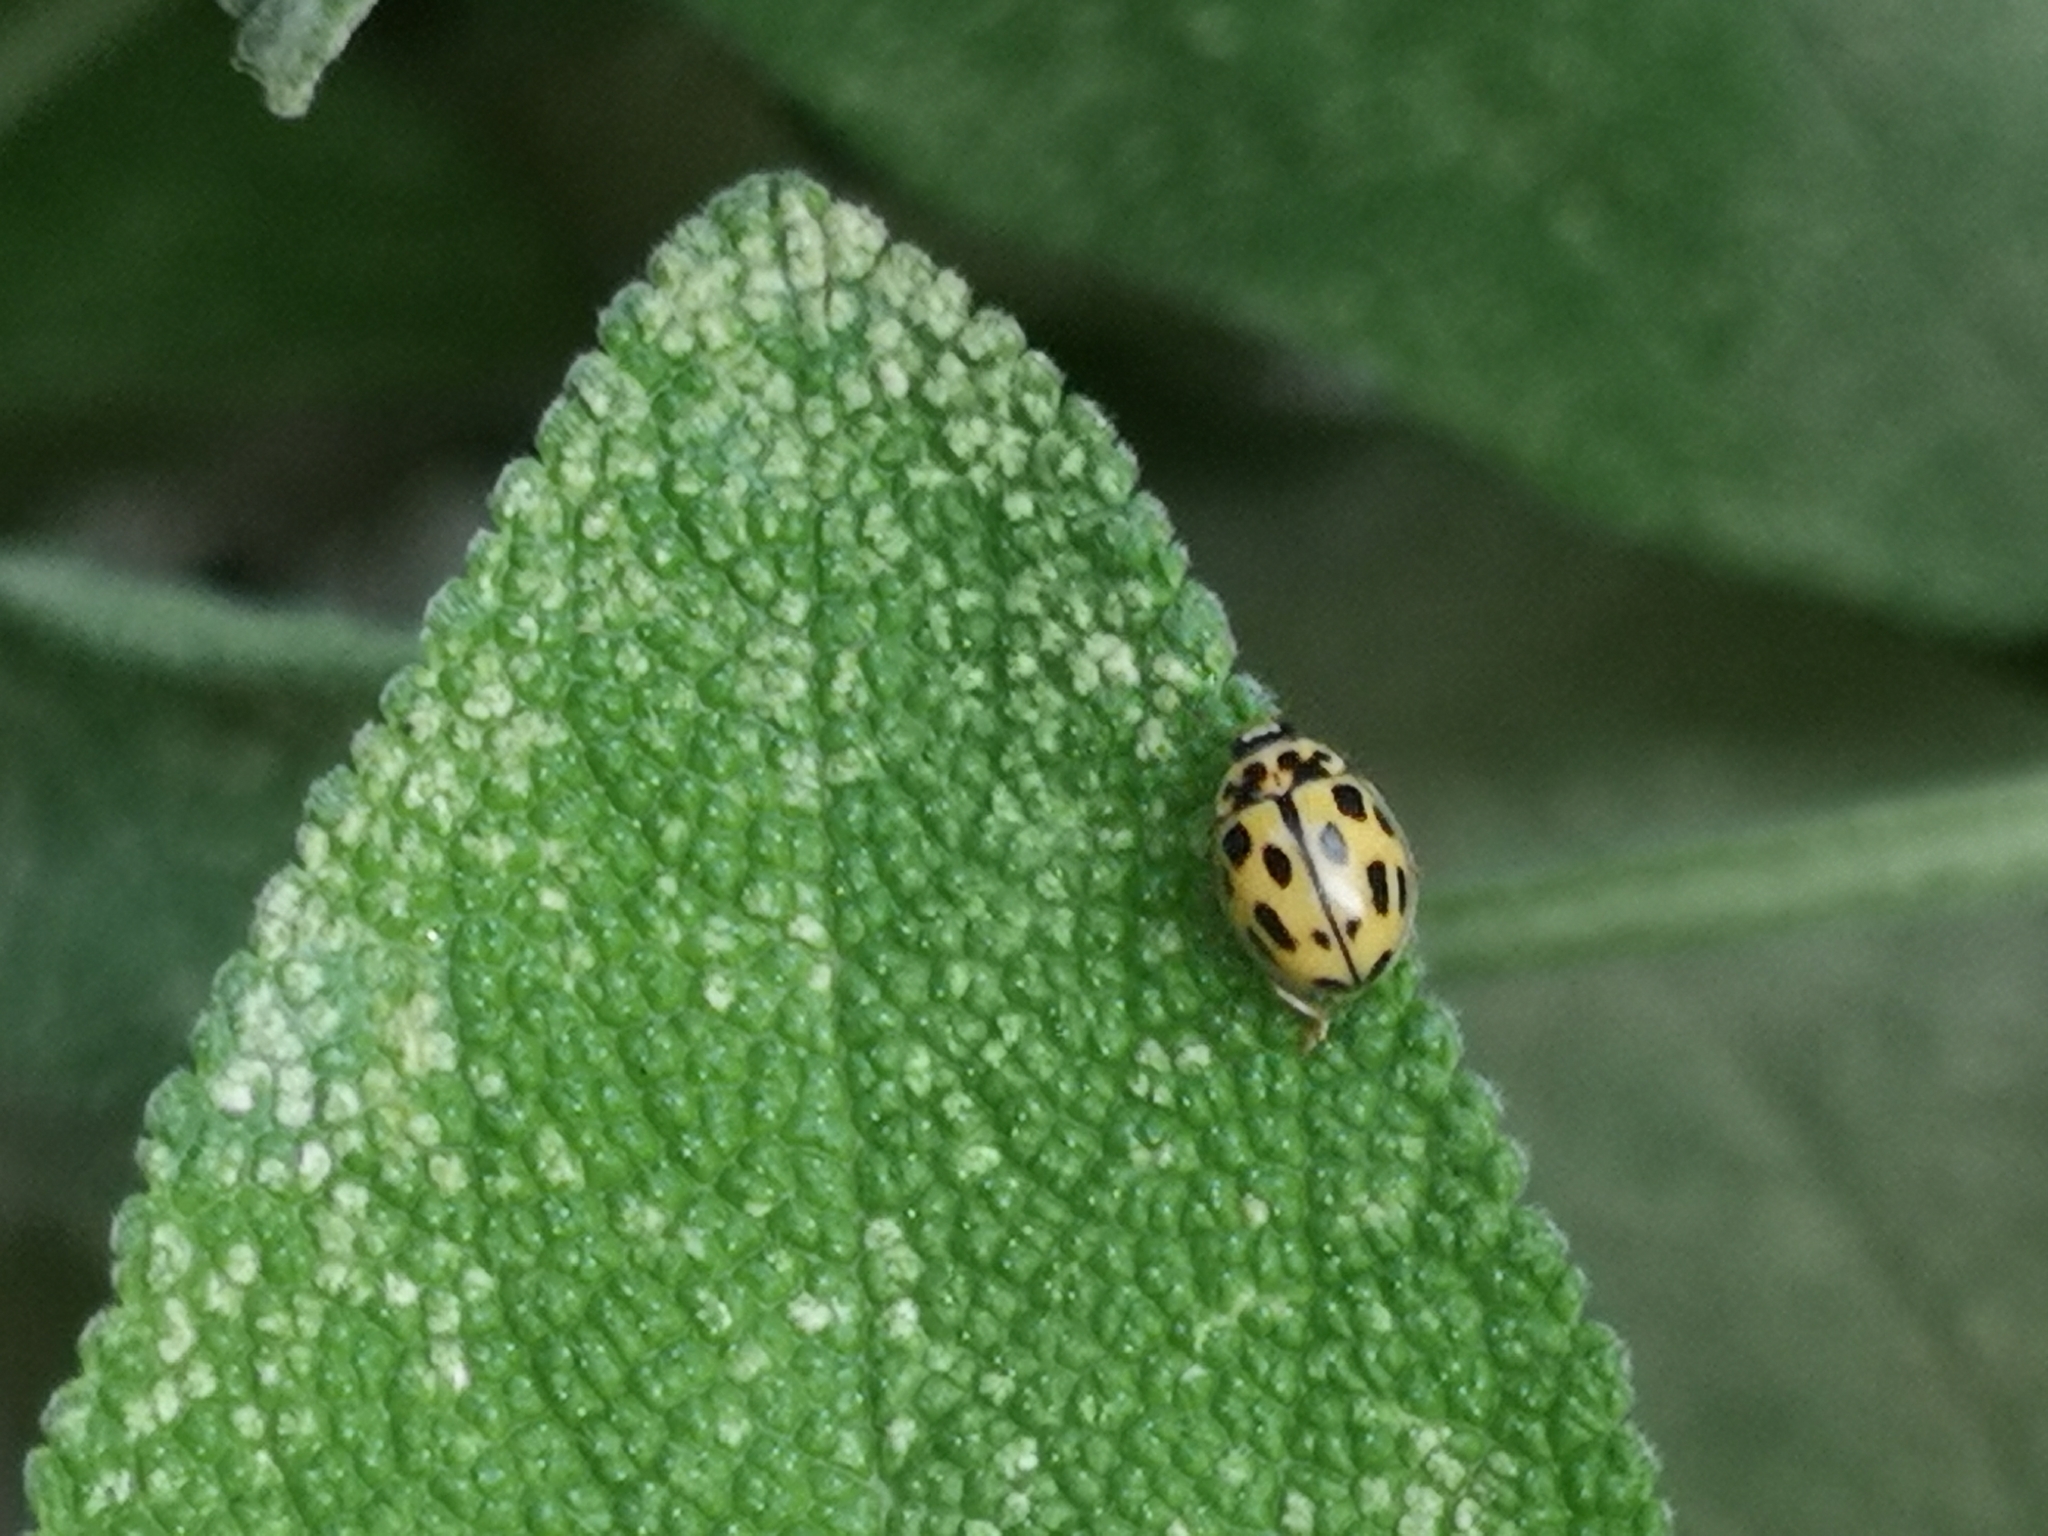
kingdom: Animalia
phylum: Arthropoda
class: Insecta
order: Coleoptera
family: Coccinellidae
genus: Propylaea
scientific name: Propylaea quatuordecimpunctata
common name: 14-spotted ladybird beetle
